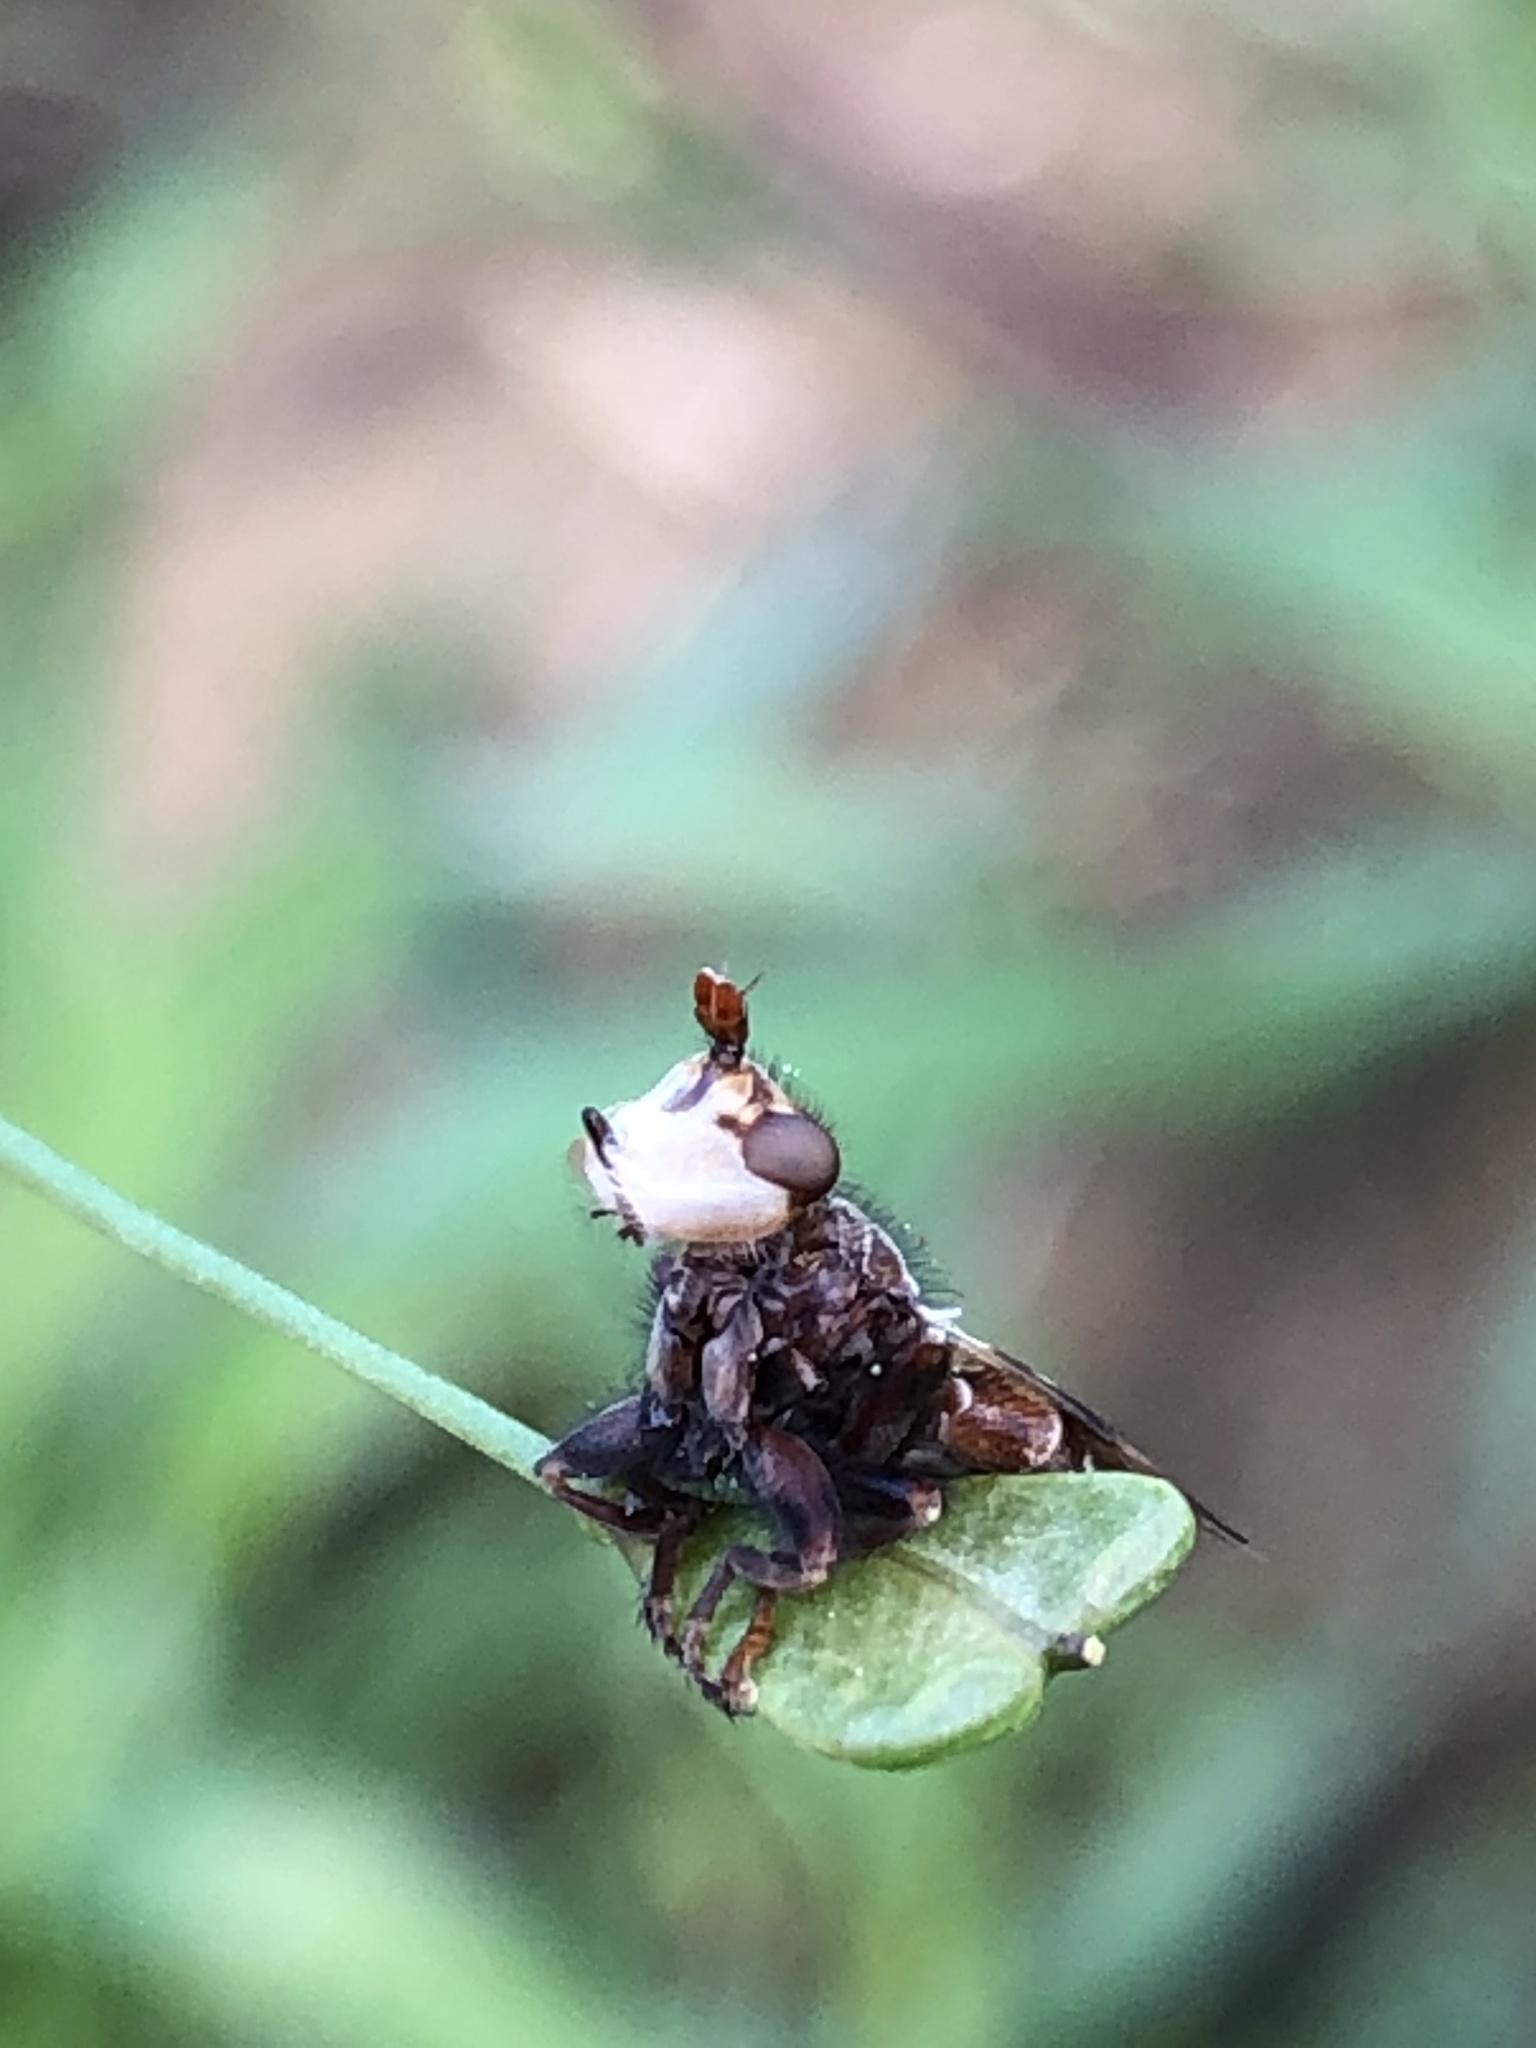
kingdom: Animalia
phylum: Arthropoda
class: Insecta
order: Diptera
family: Conopidae
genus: Myopa
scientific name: Myopa vicaria
